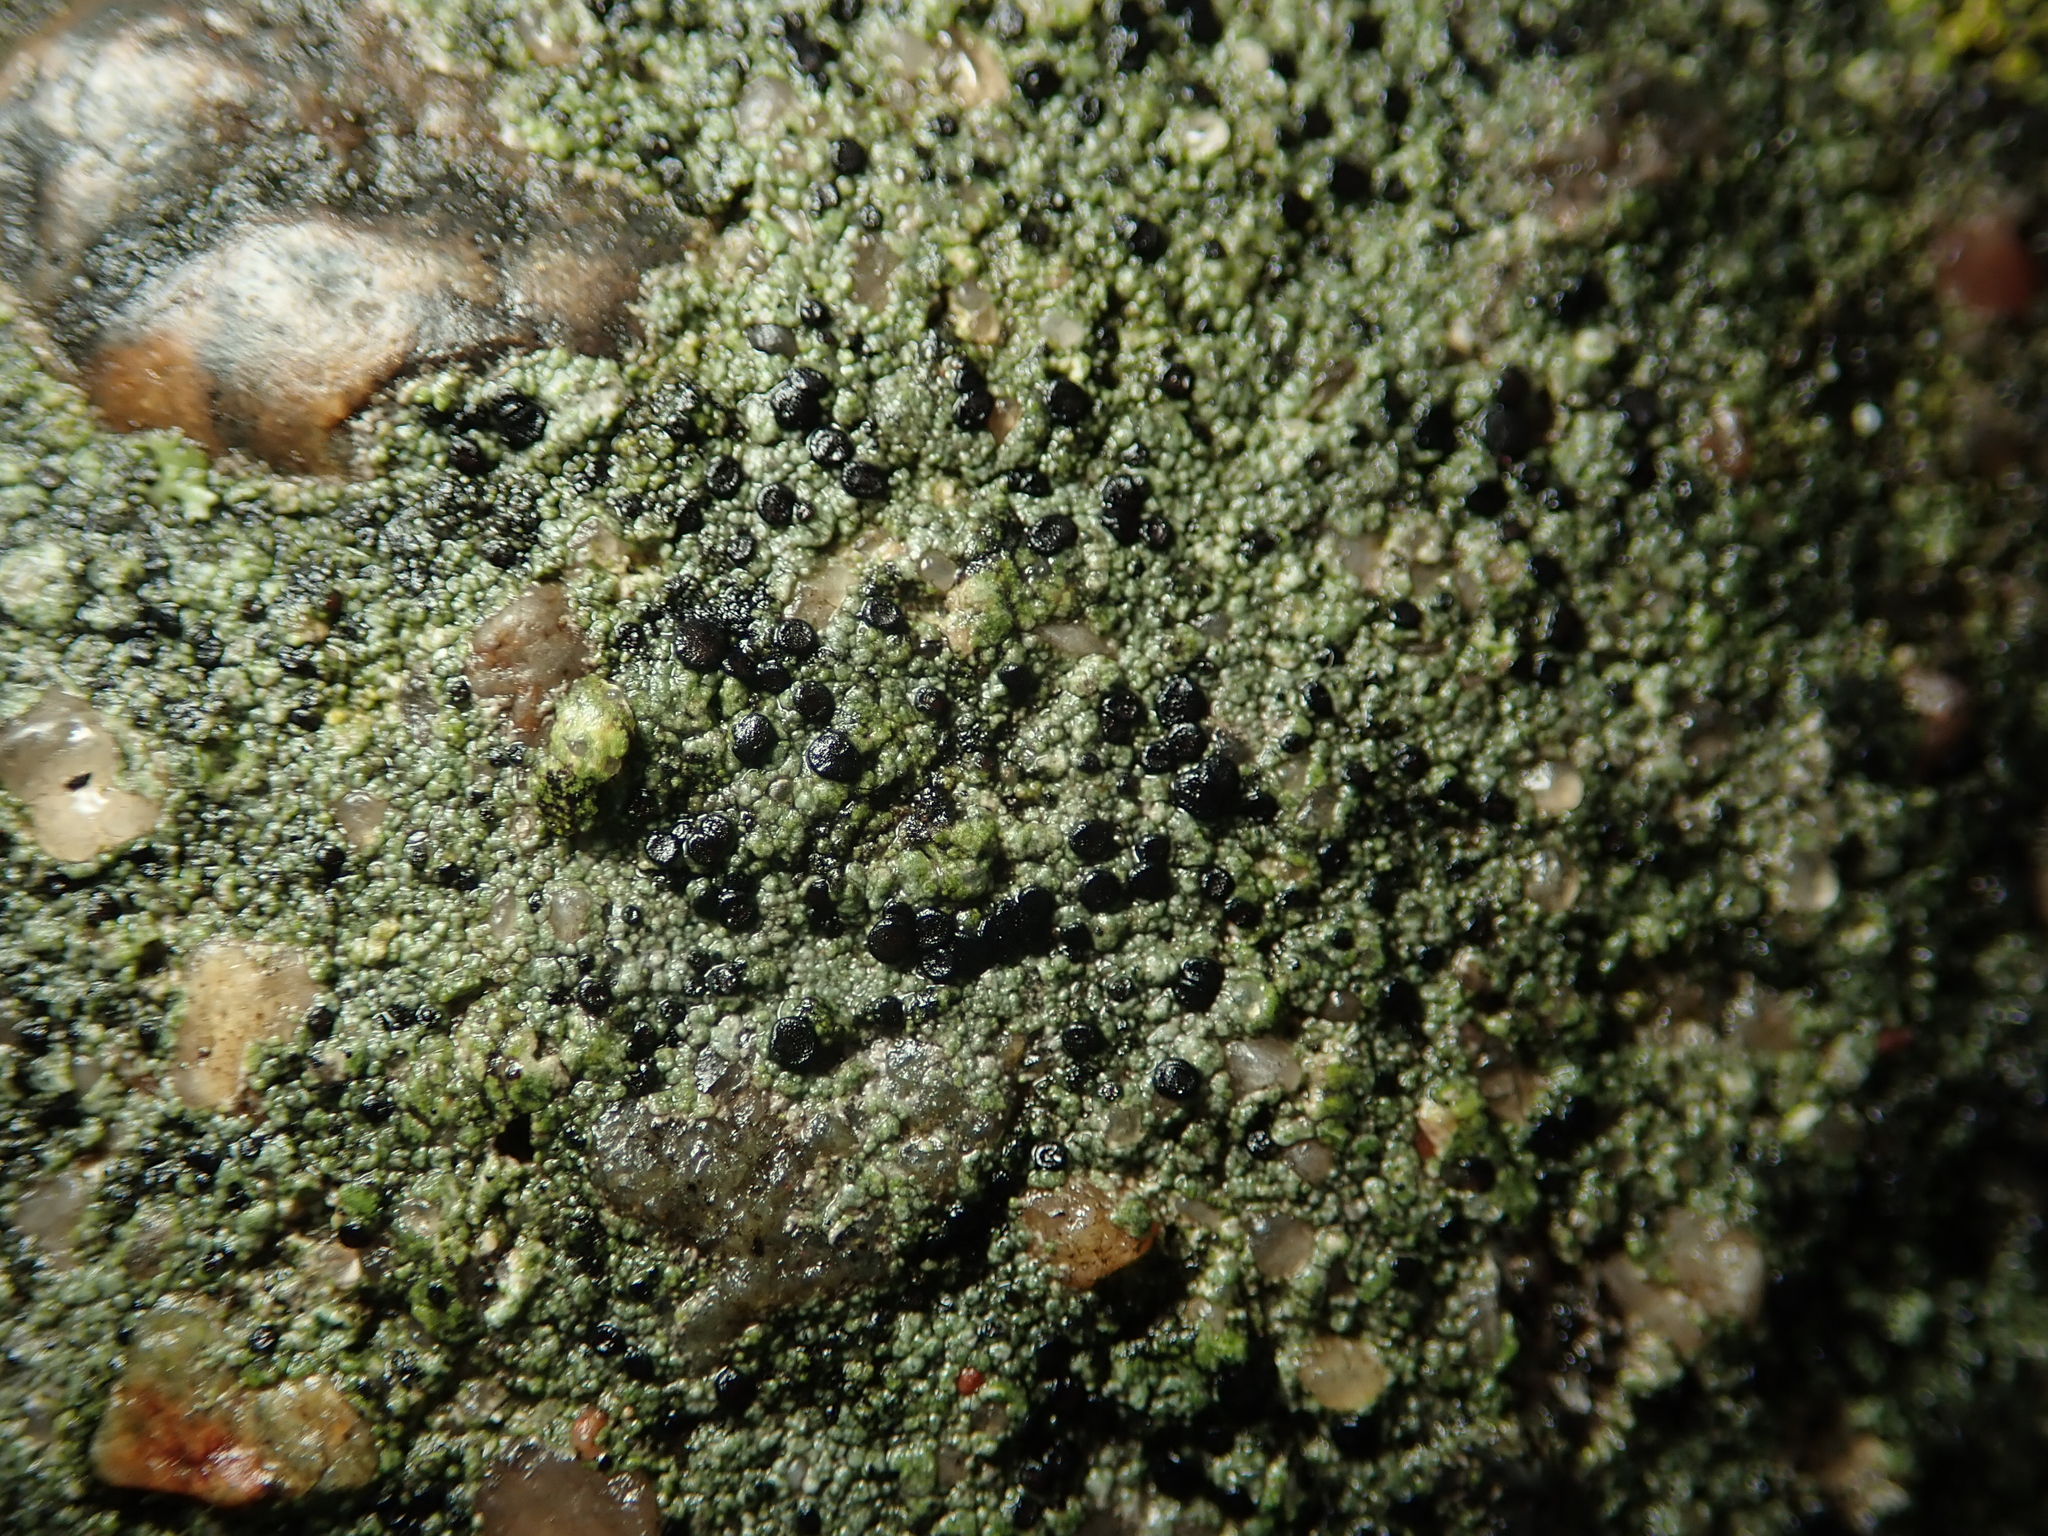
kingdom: Fungi
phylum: Ascomycota
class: Lecanoromycetes
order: Lecanorales
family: Lecanoraceae
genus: Lecidella
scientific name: Lecidella stigmatea
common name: Limestone disc lichen
